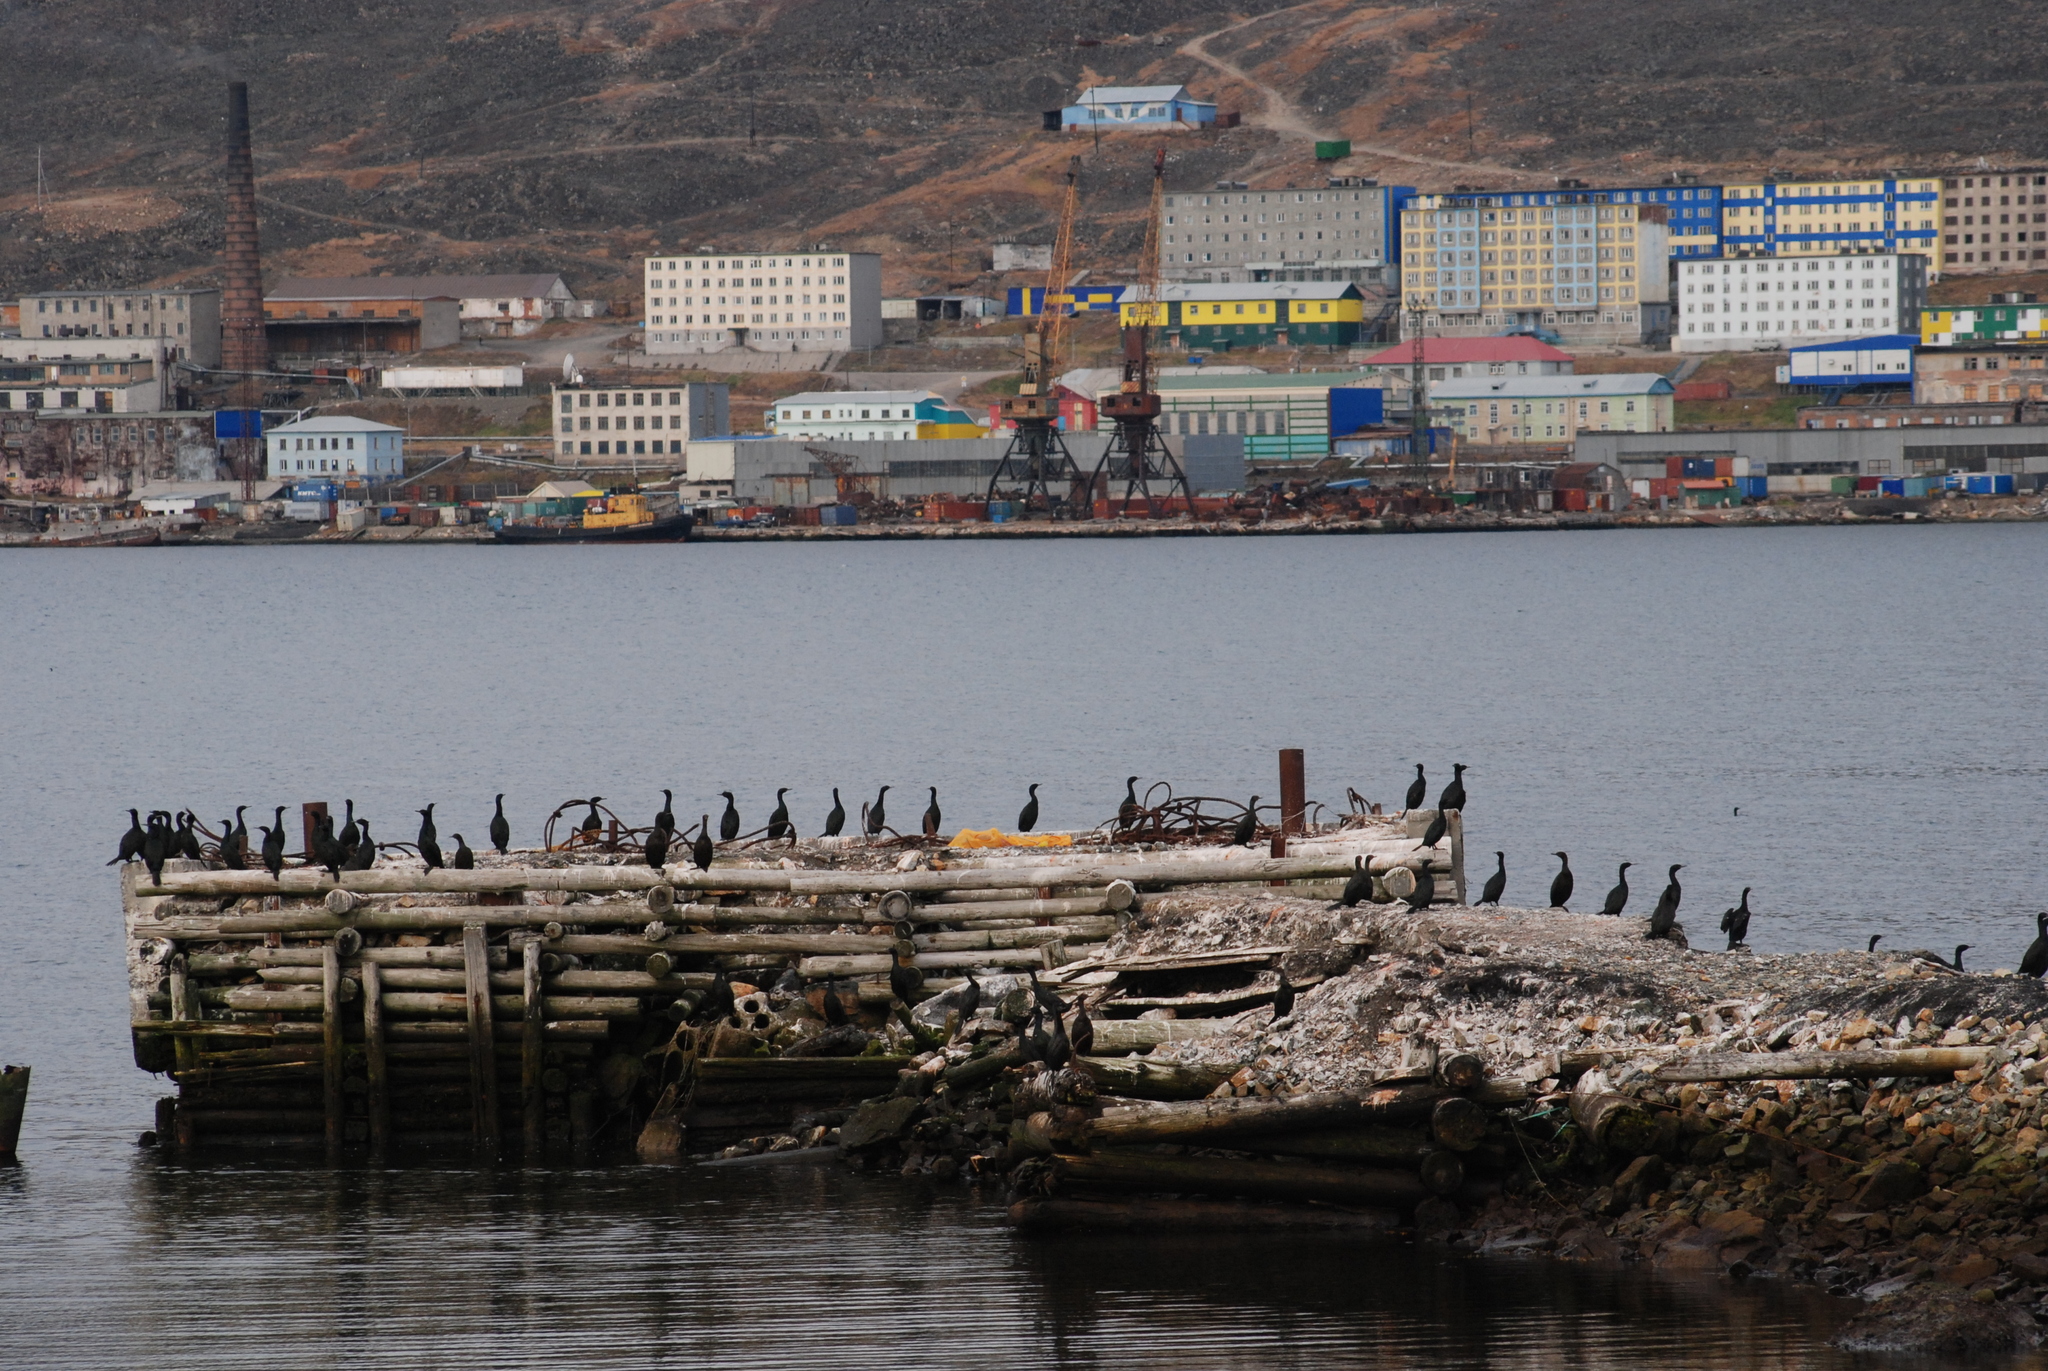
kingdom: Animalia
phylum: Chordata
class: Aves
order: Suliformes
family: Phalacrocoracidae
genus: Phalacrocorax
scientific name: Phalacrocorax pelagicus
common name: Pelagic cormorant
